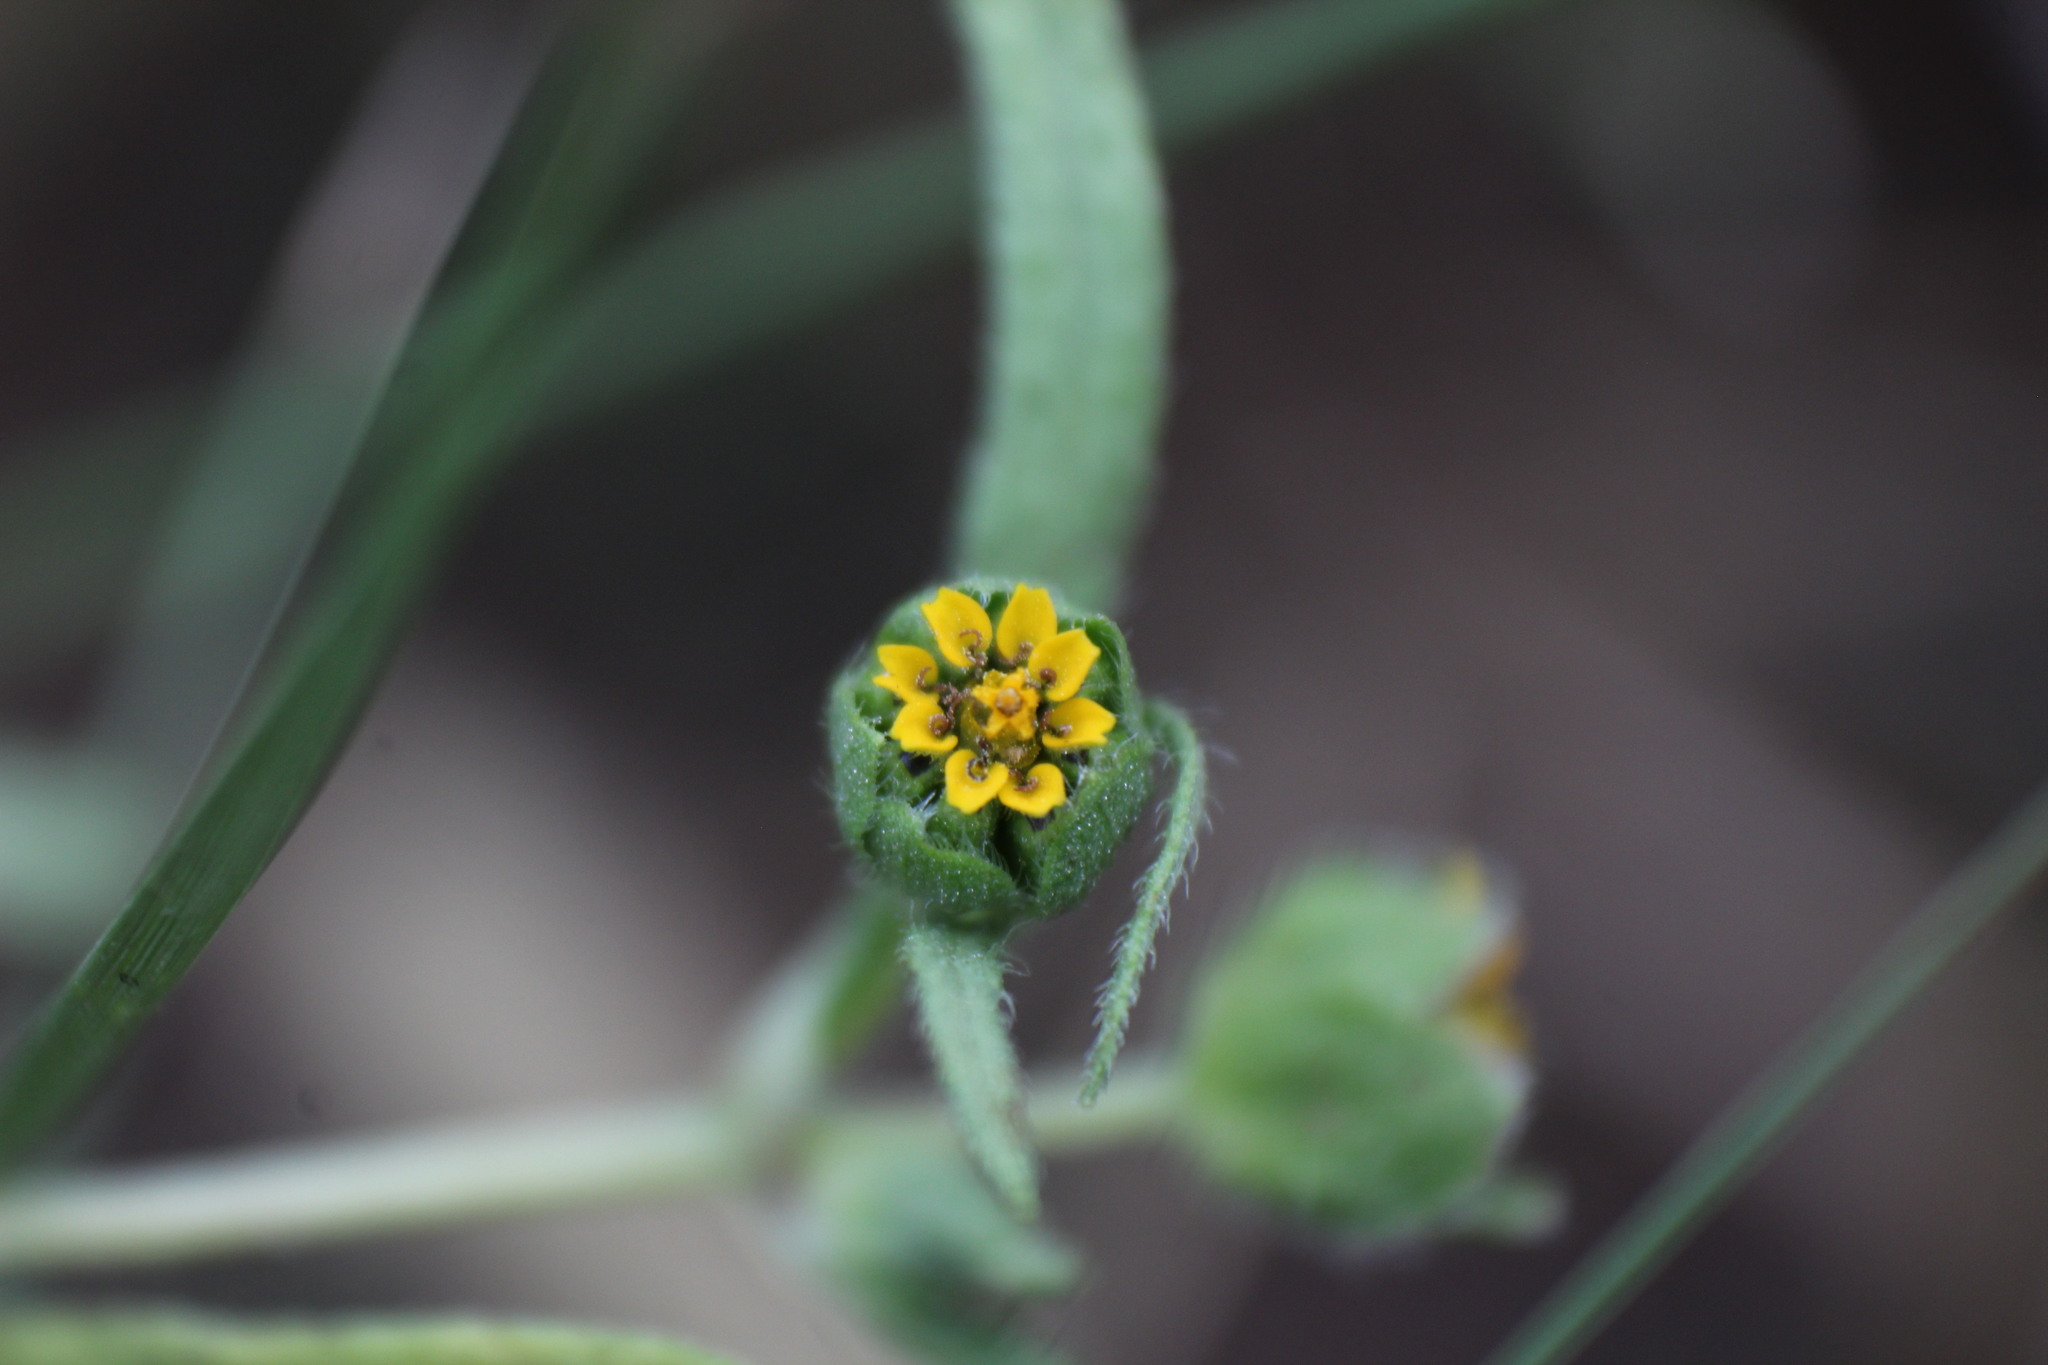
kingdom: Plantae
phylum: Tracheophyta
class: Magnoliopsida
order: Asterales
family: Asteraceae
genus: Melampodium
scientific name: Melampodium strigosum
